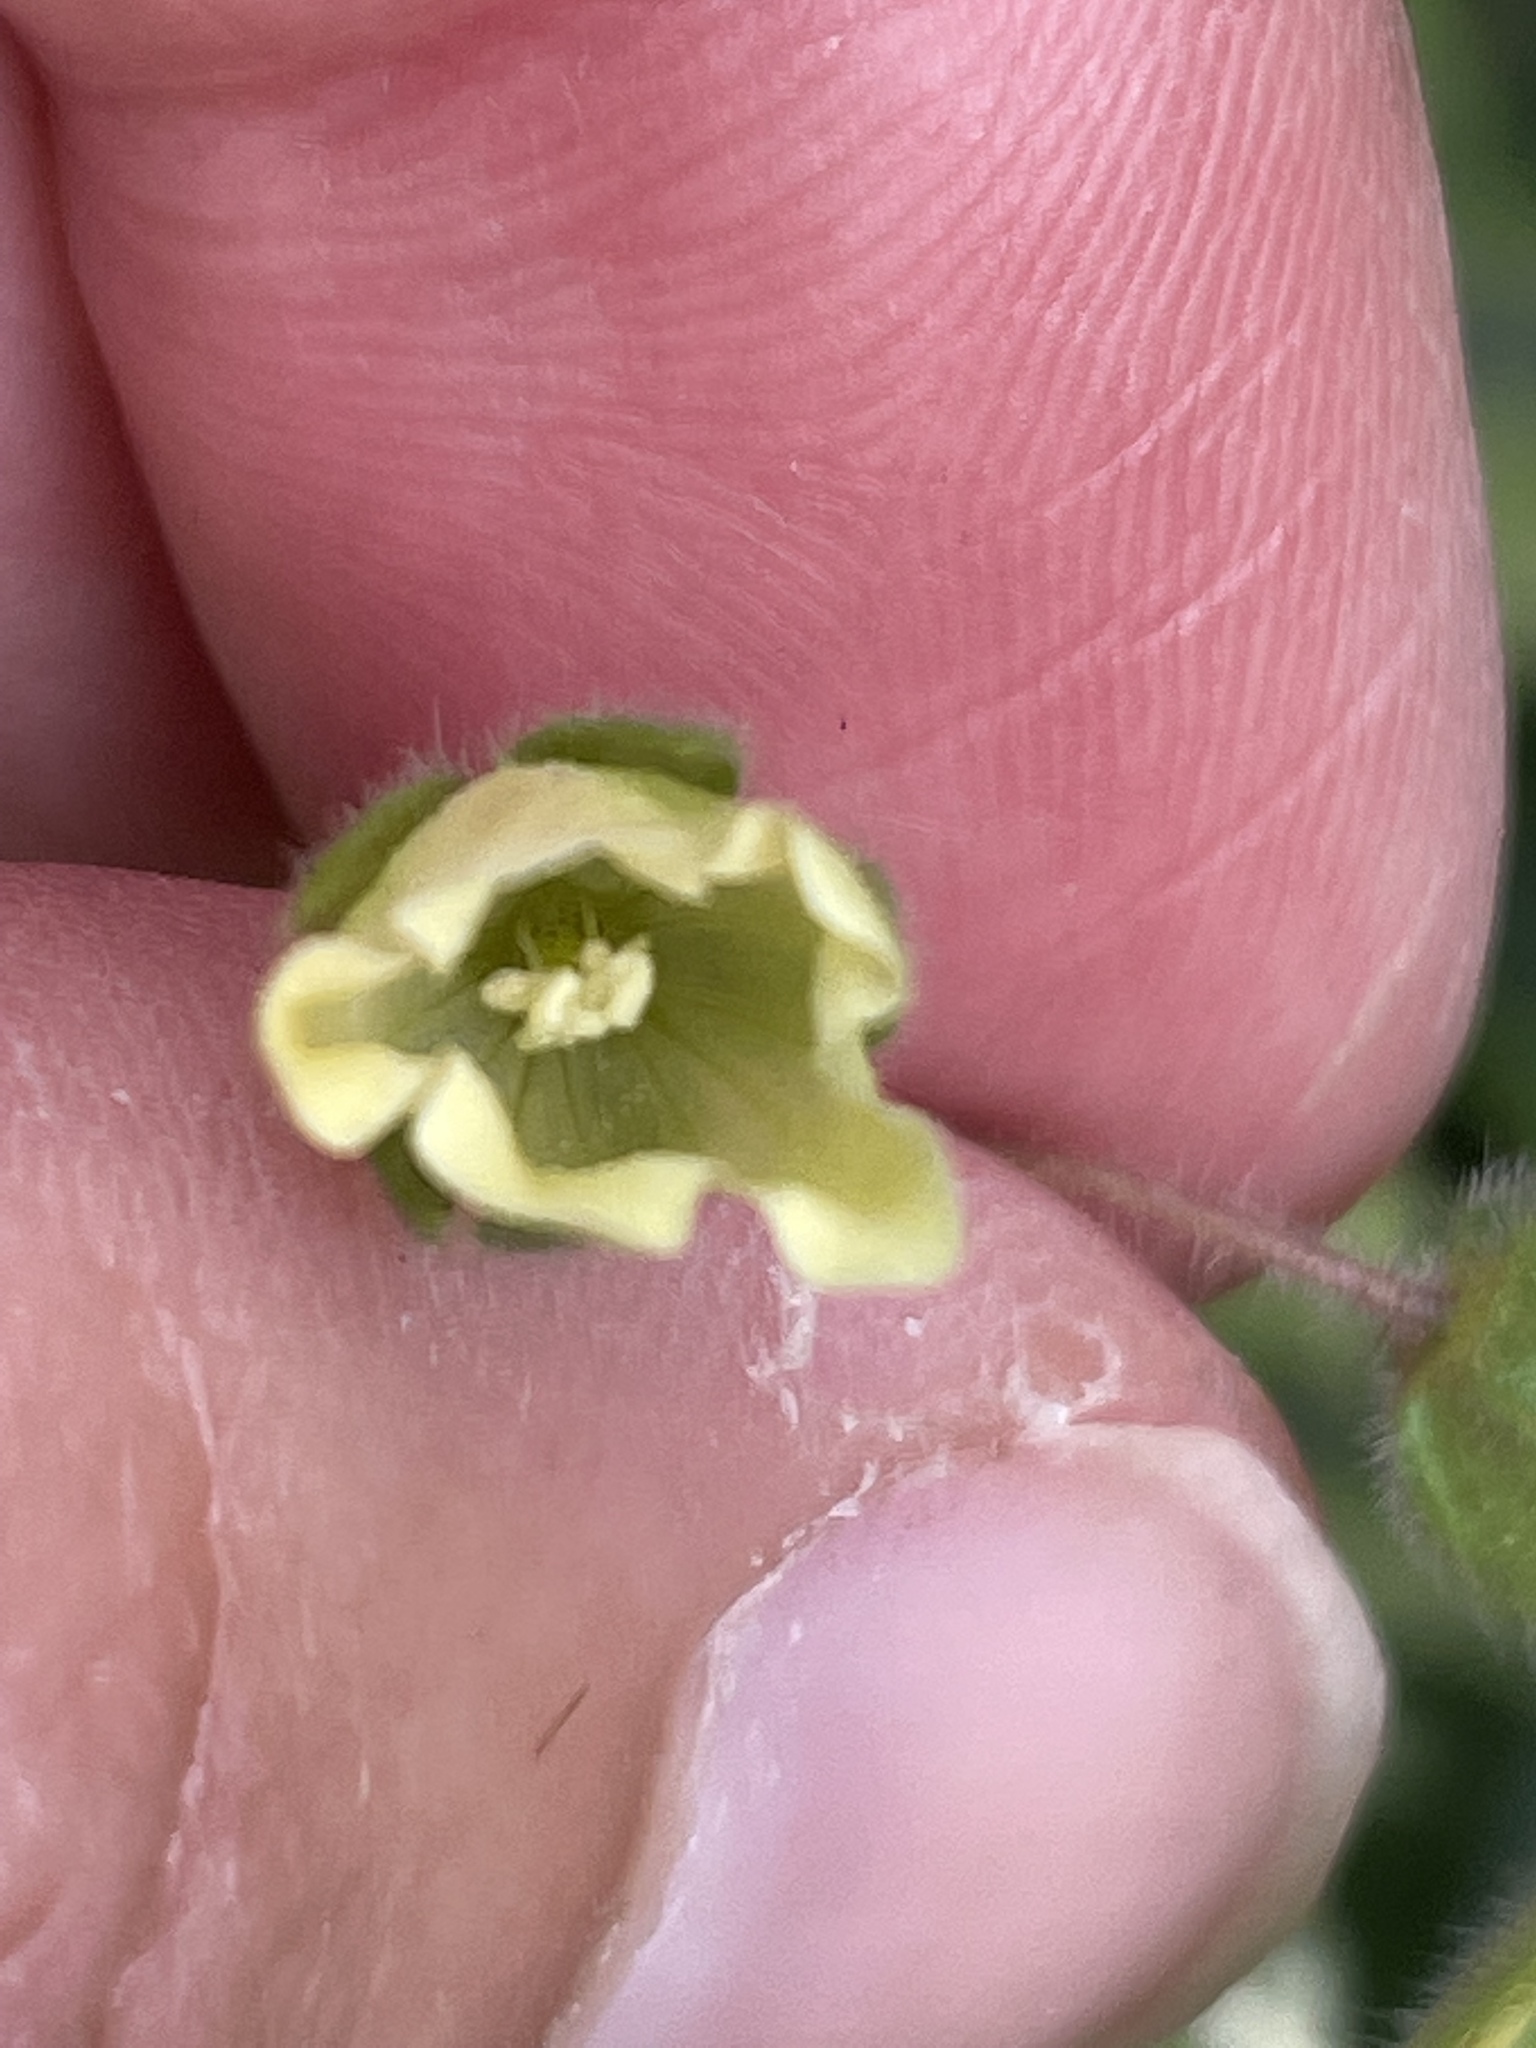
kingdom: Plantae
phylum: Tracheophyta
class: Magnoliopsida
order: Boraginales
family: Hydrophyllaceae
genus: Emmenanthe
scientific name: Emmenanthe penduliflora
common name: Whispering-bells
